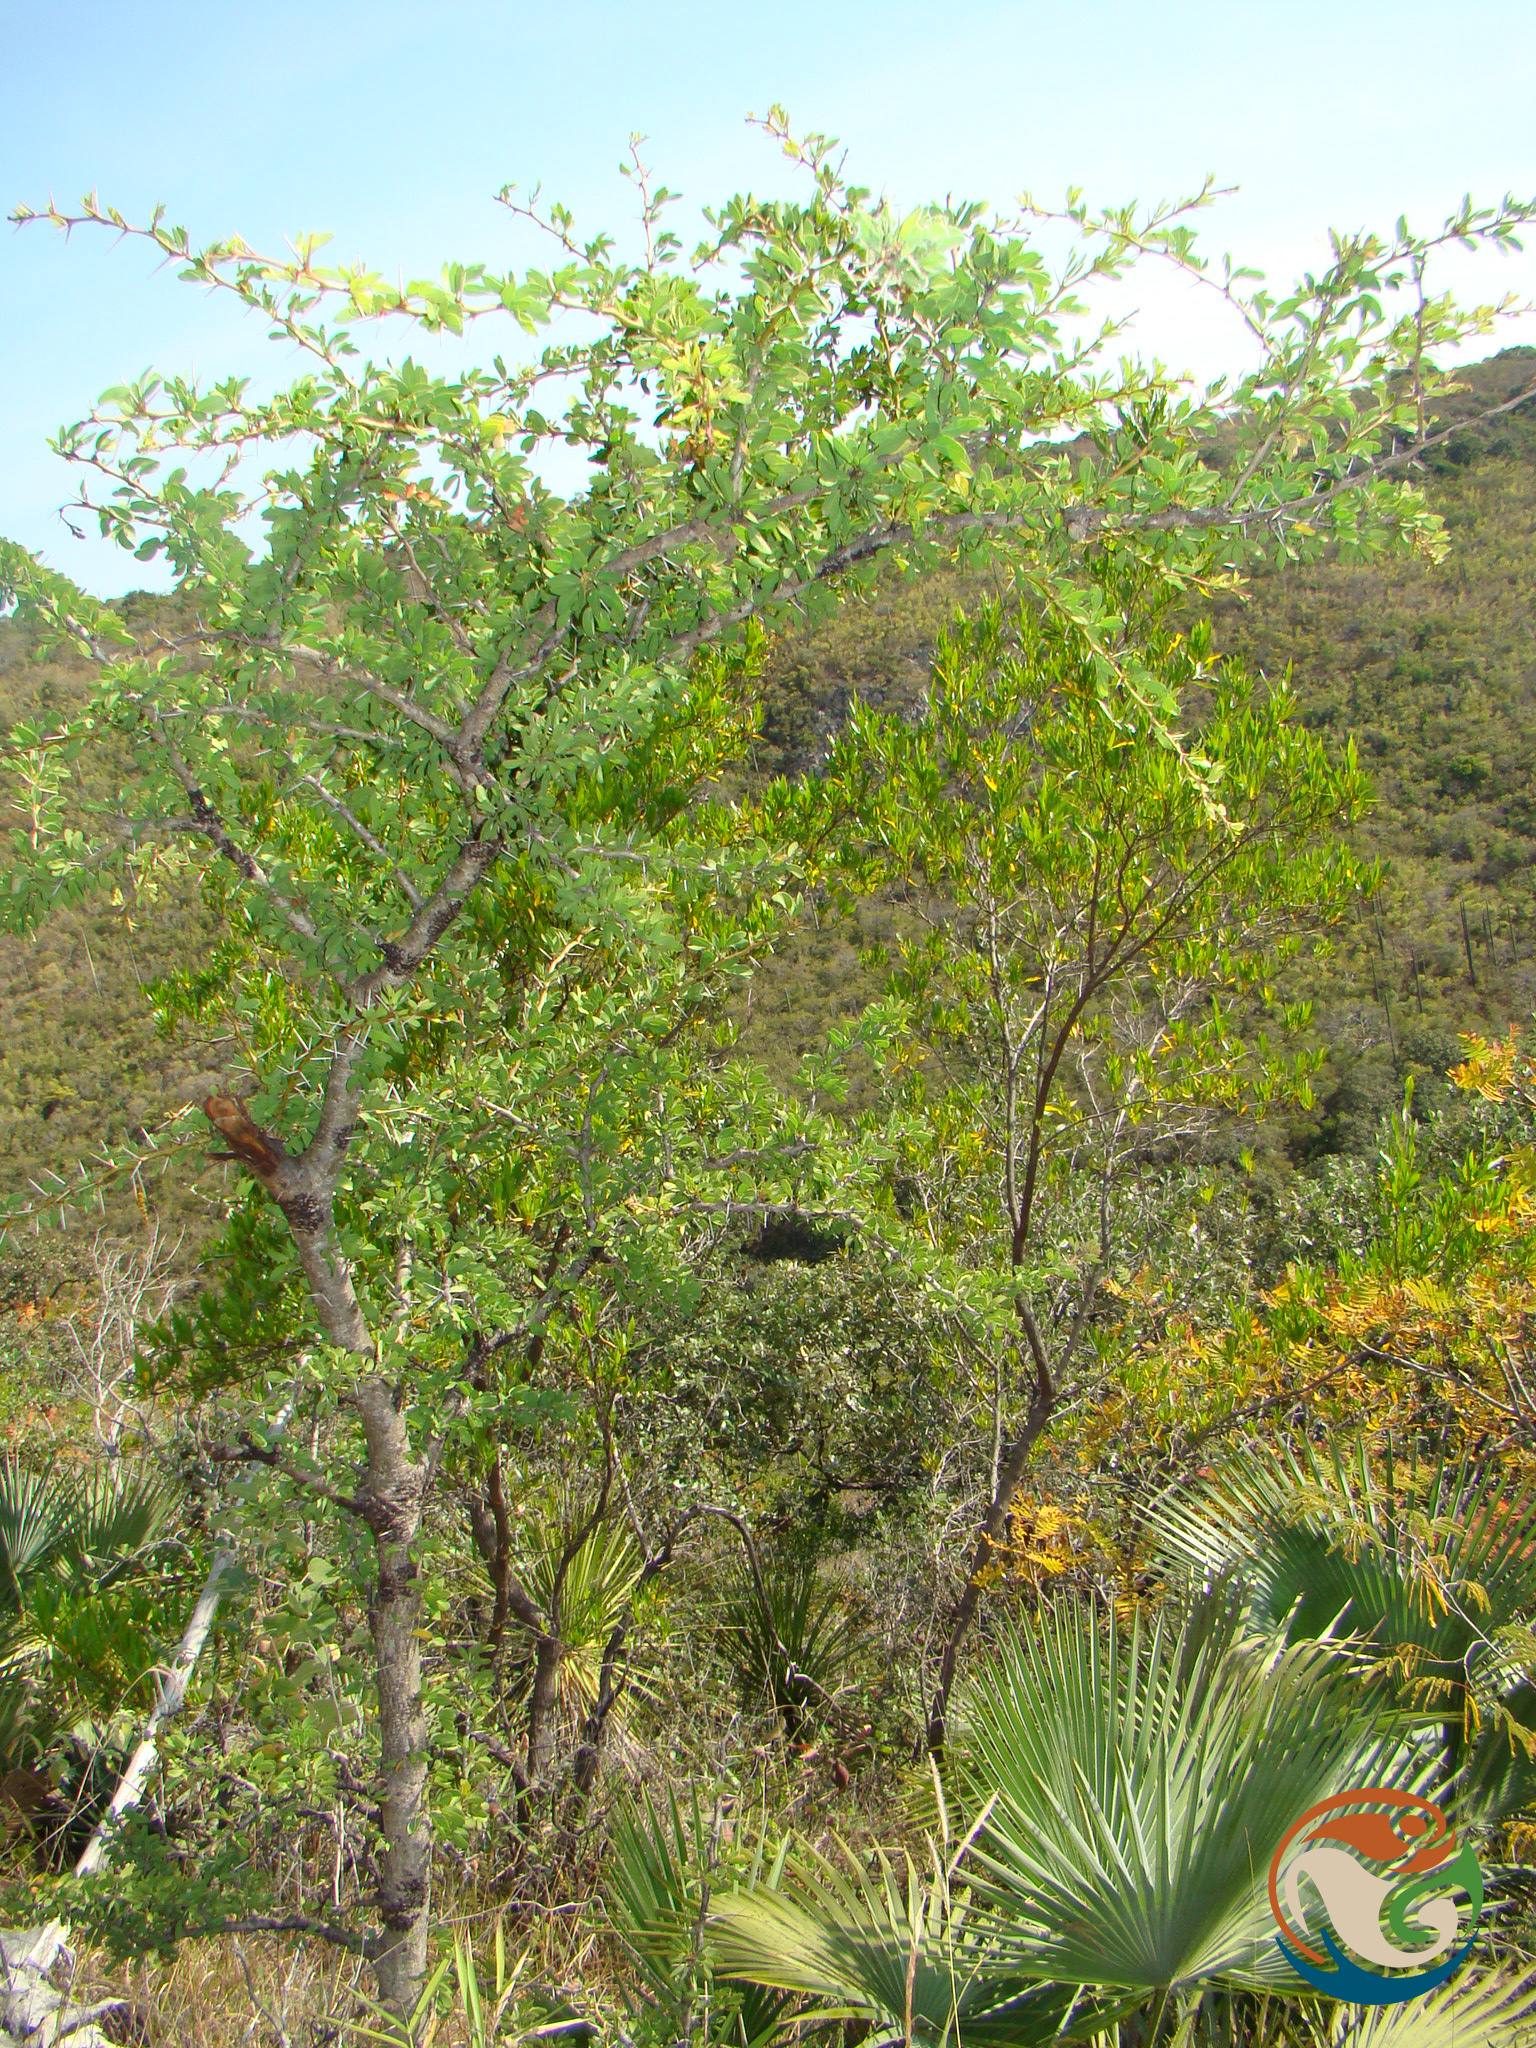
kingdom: Plantae
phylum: Tracheophyta
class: Magnoliopsida
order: Fabales
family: Fabaceae
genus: Vachellia
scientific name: Vachellia bilimekii
